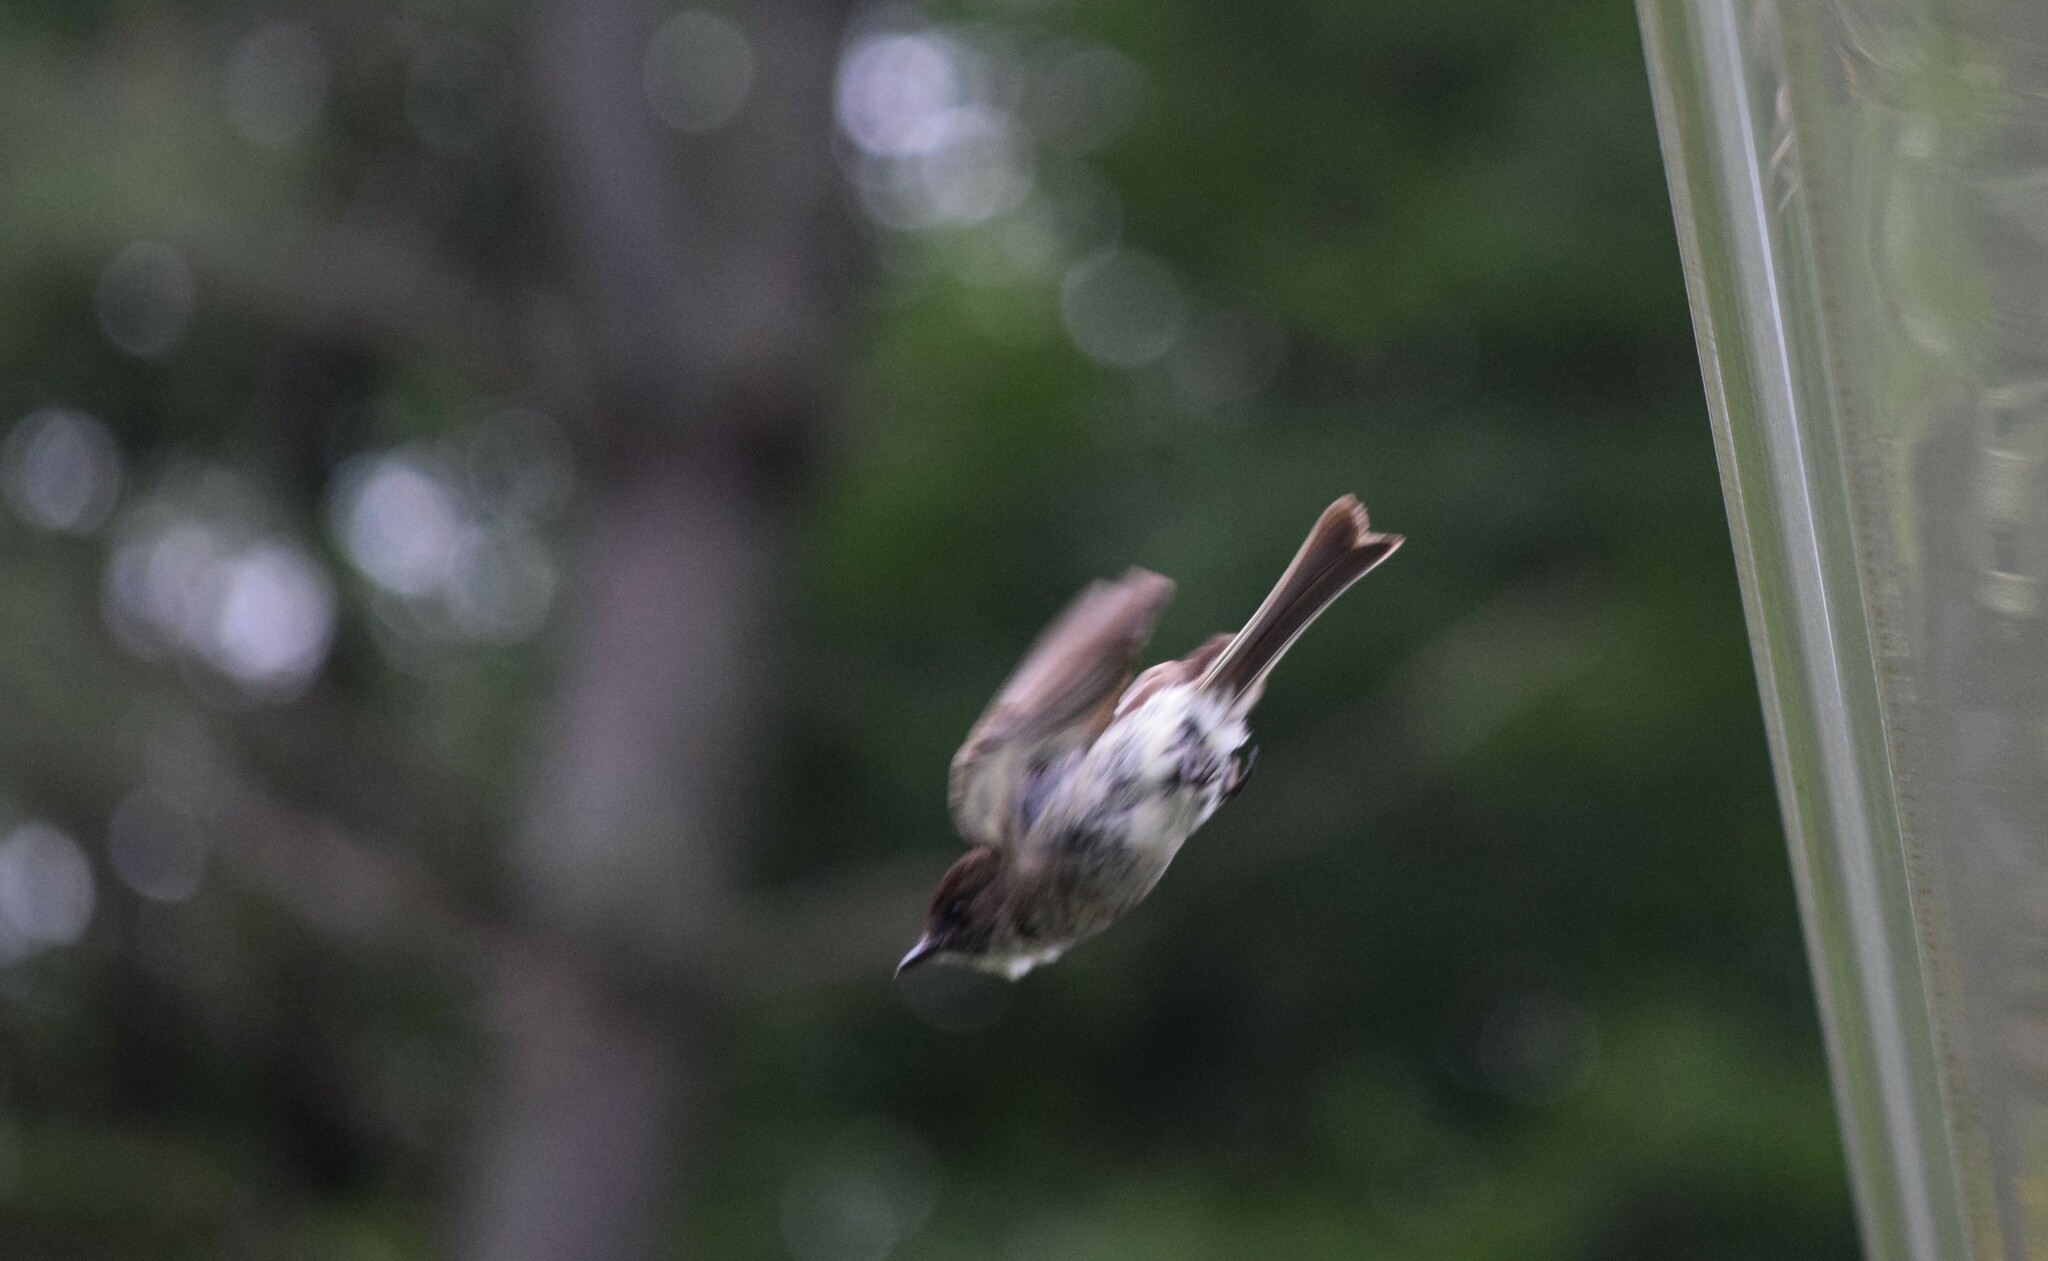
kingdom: Animalia
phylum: Chordata
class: Aves
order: Passeriformes
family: Tyrannidae
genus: Sayornis
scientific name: Sayornis phoebe
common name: Eastern phoebe
